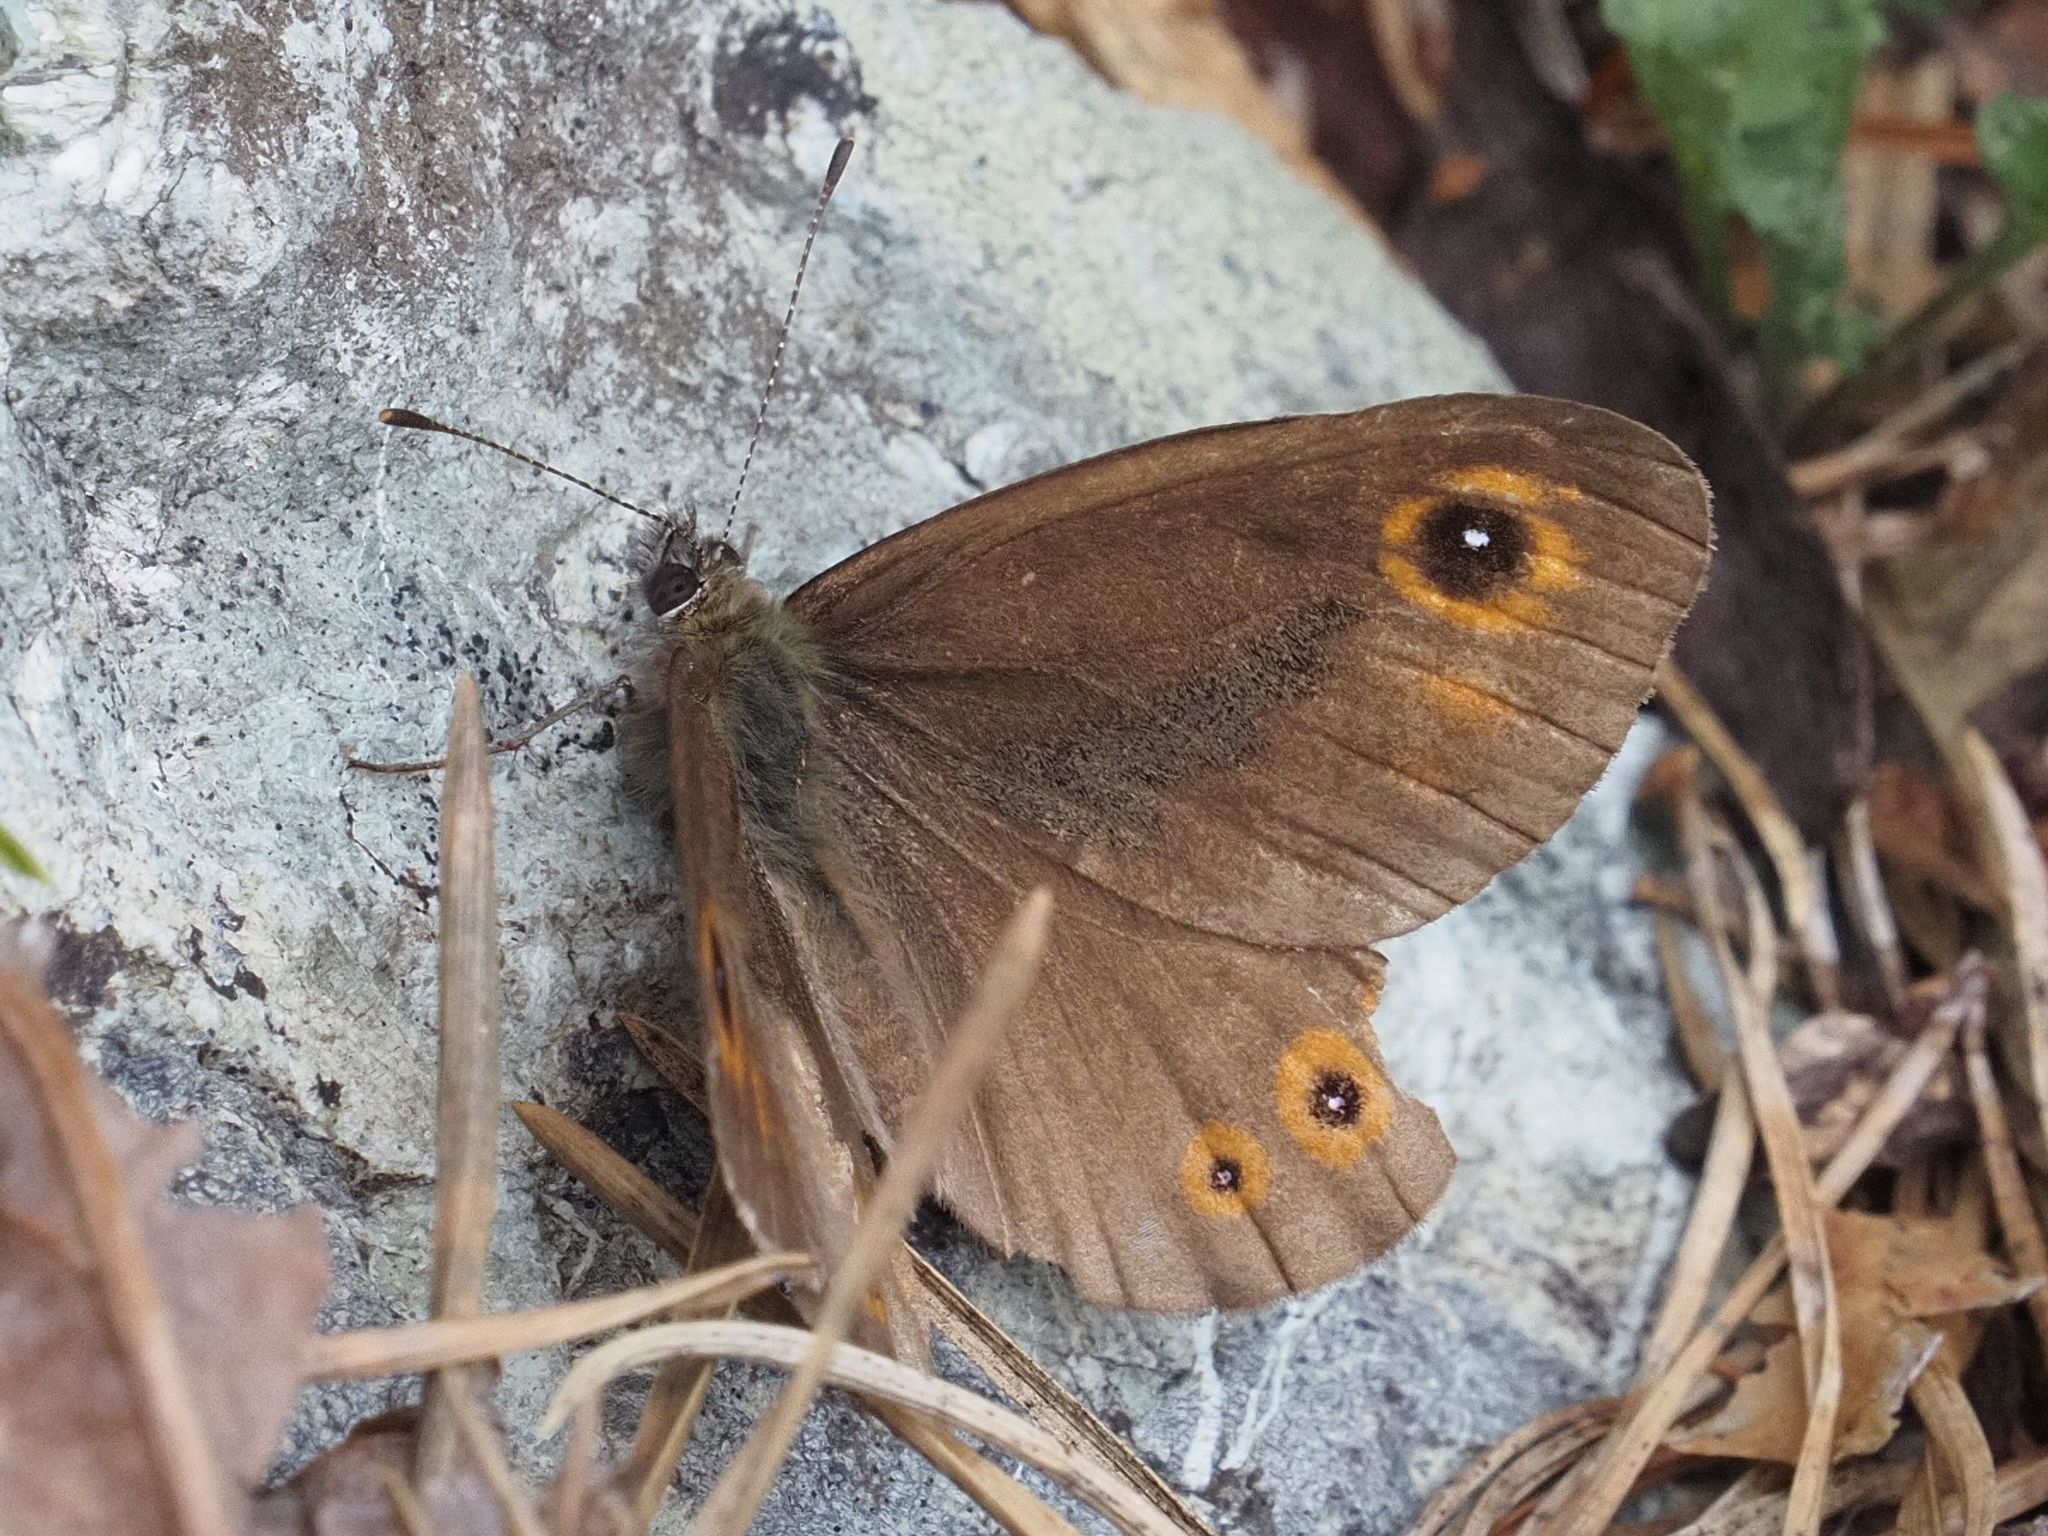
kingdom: Animalia
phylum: Arthropoda
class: Insecta
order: Lepidoptera
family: Nymphalidae
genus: Pararge
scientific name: Pararge Lasiommata maera
